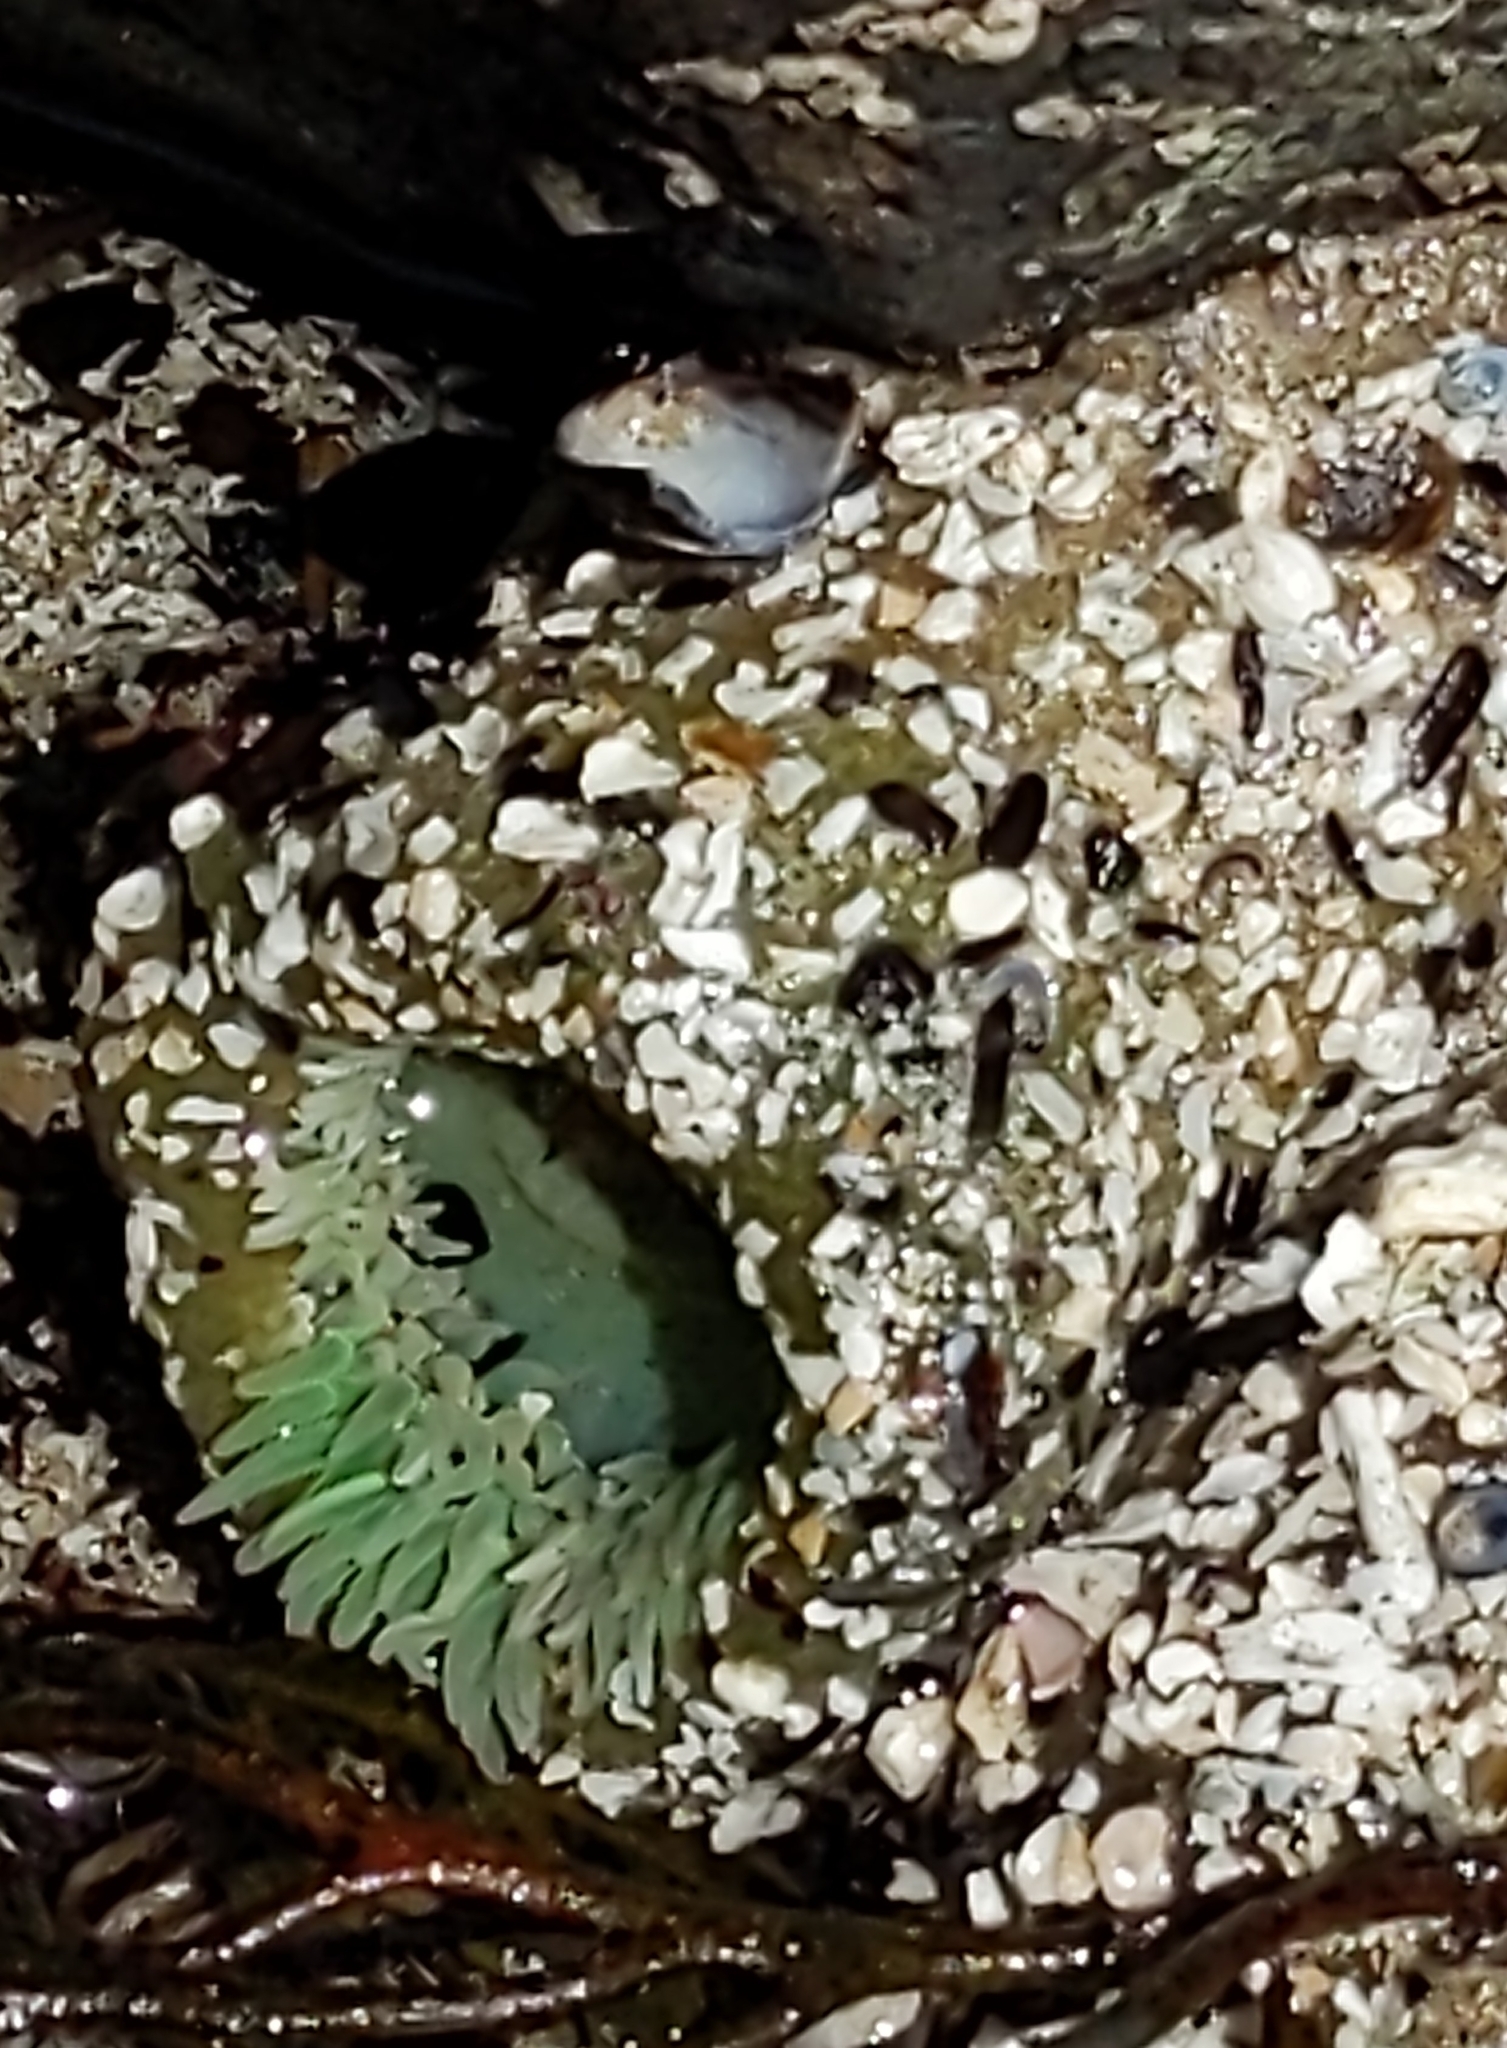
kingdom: Animalia
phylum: Cnidaria
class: Anthozoa
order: Actiniaria
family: Actiniidae
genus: Anthopleura
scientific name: Anthopleura xanthogrammica
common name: Giant green anemone
